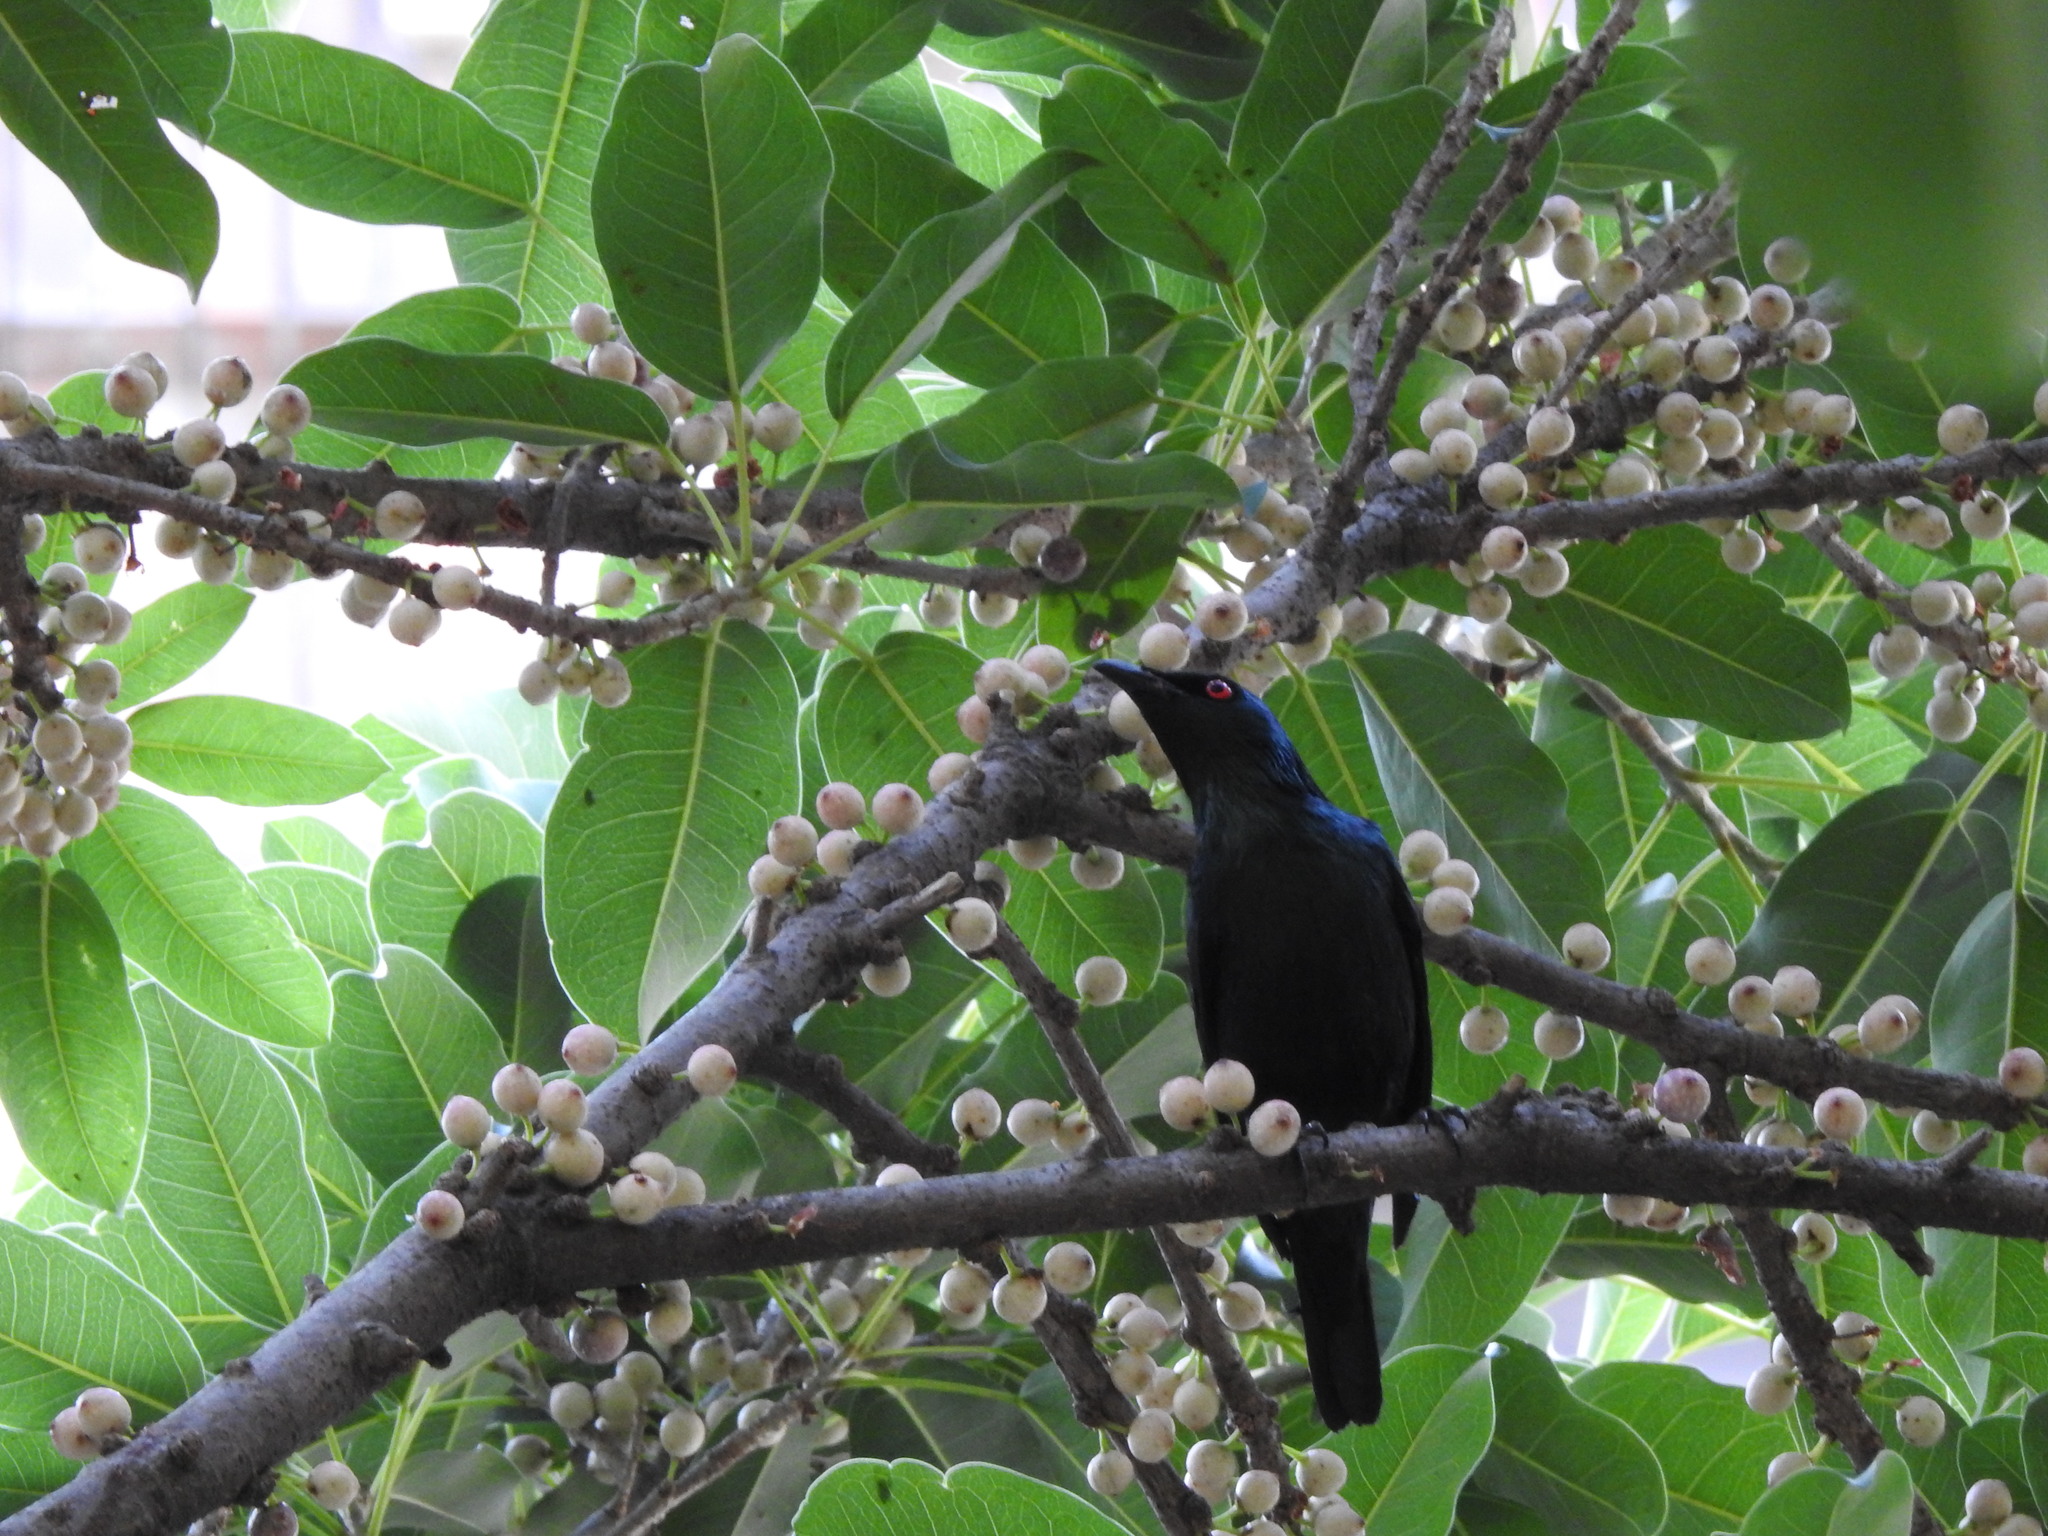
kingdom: Animalia
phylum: Chordata
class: Aves
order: Passeriformes
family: Sturnidae
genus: Aplonis
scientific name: Aplonis panayensis
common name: Asian glossy starling
